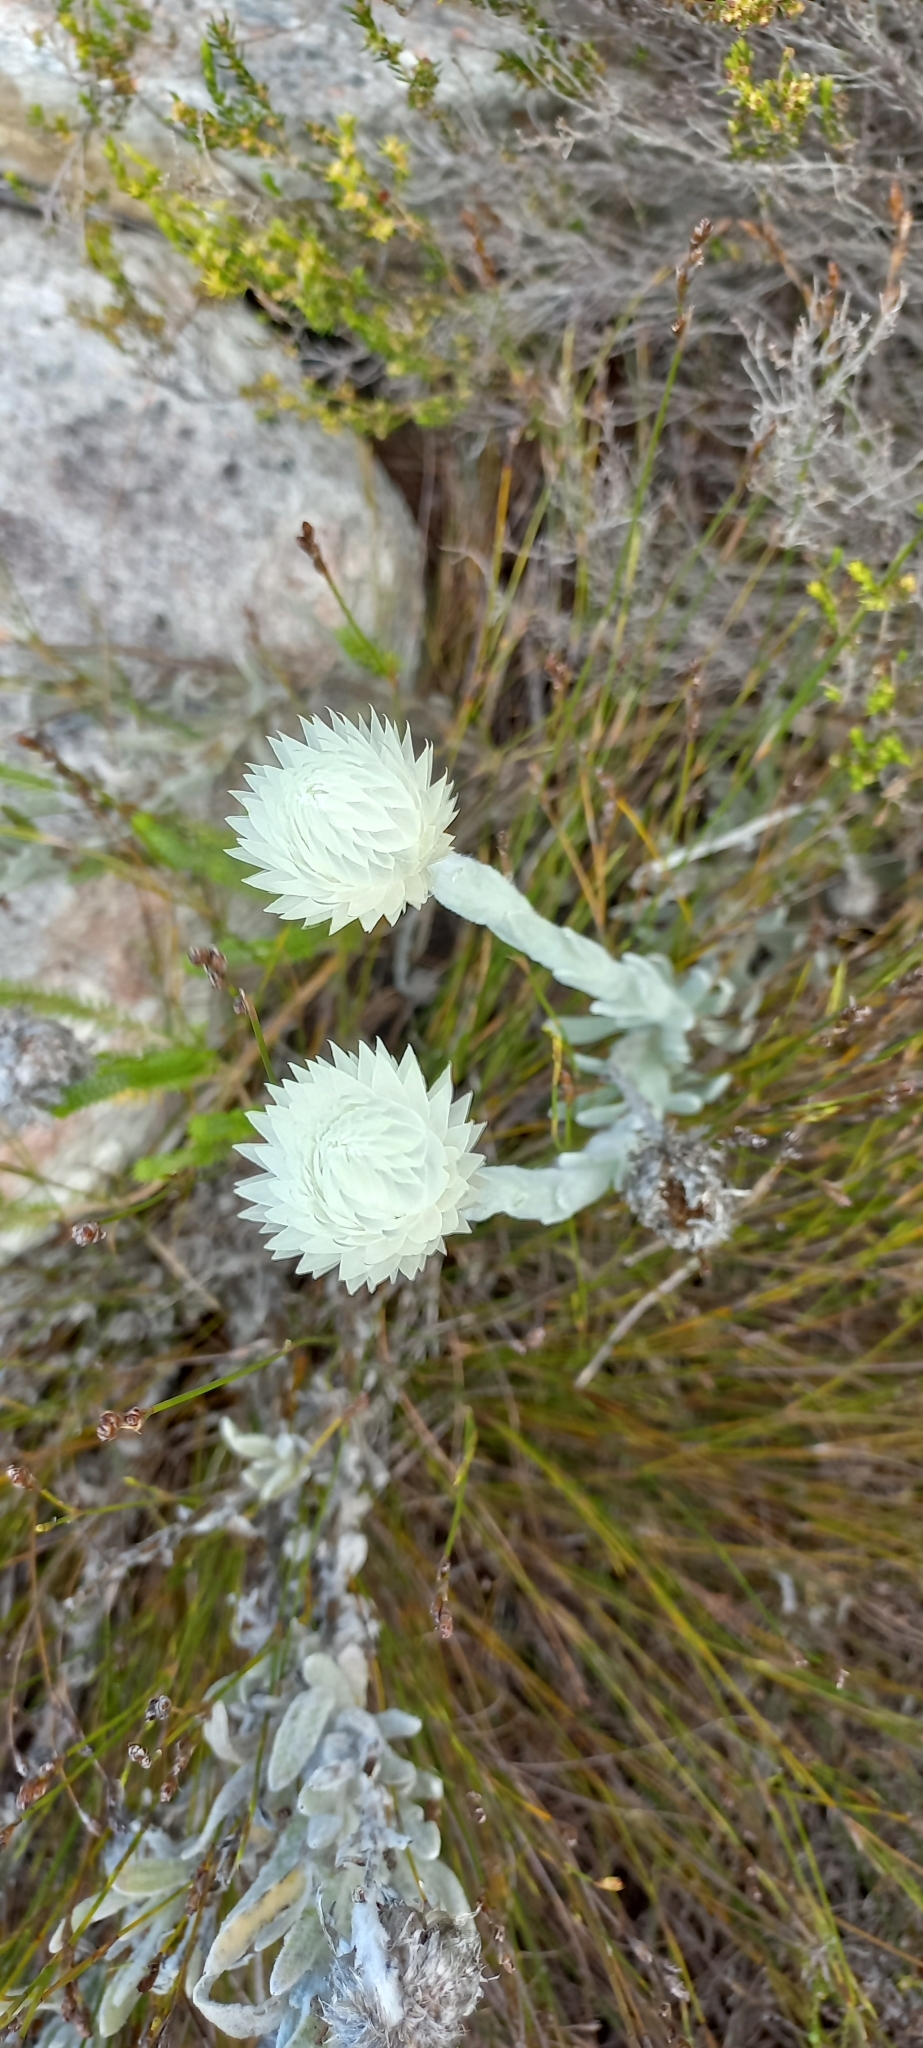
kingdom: Plantae
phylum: Tracheophyta
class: Magnoliopsida
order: Asterales
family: Asteraceae
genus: Syncarpha
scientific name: Syncarpha vestita
